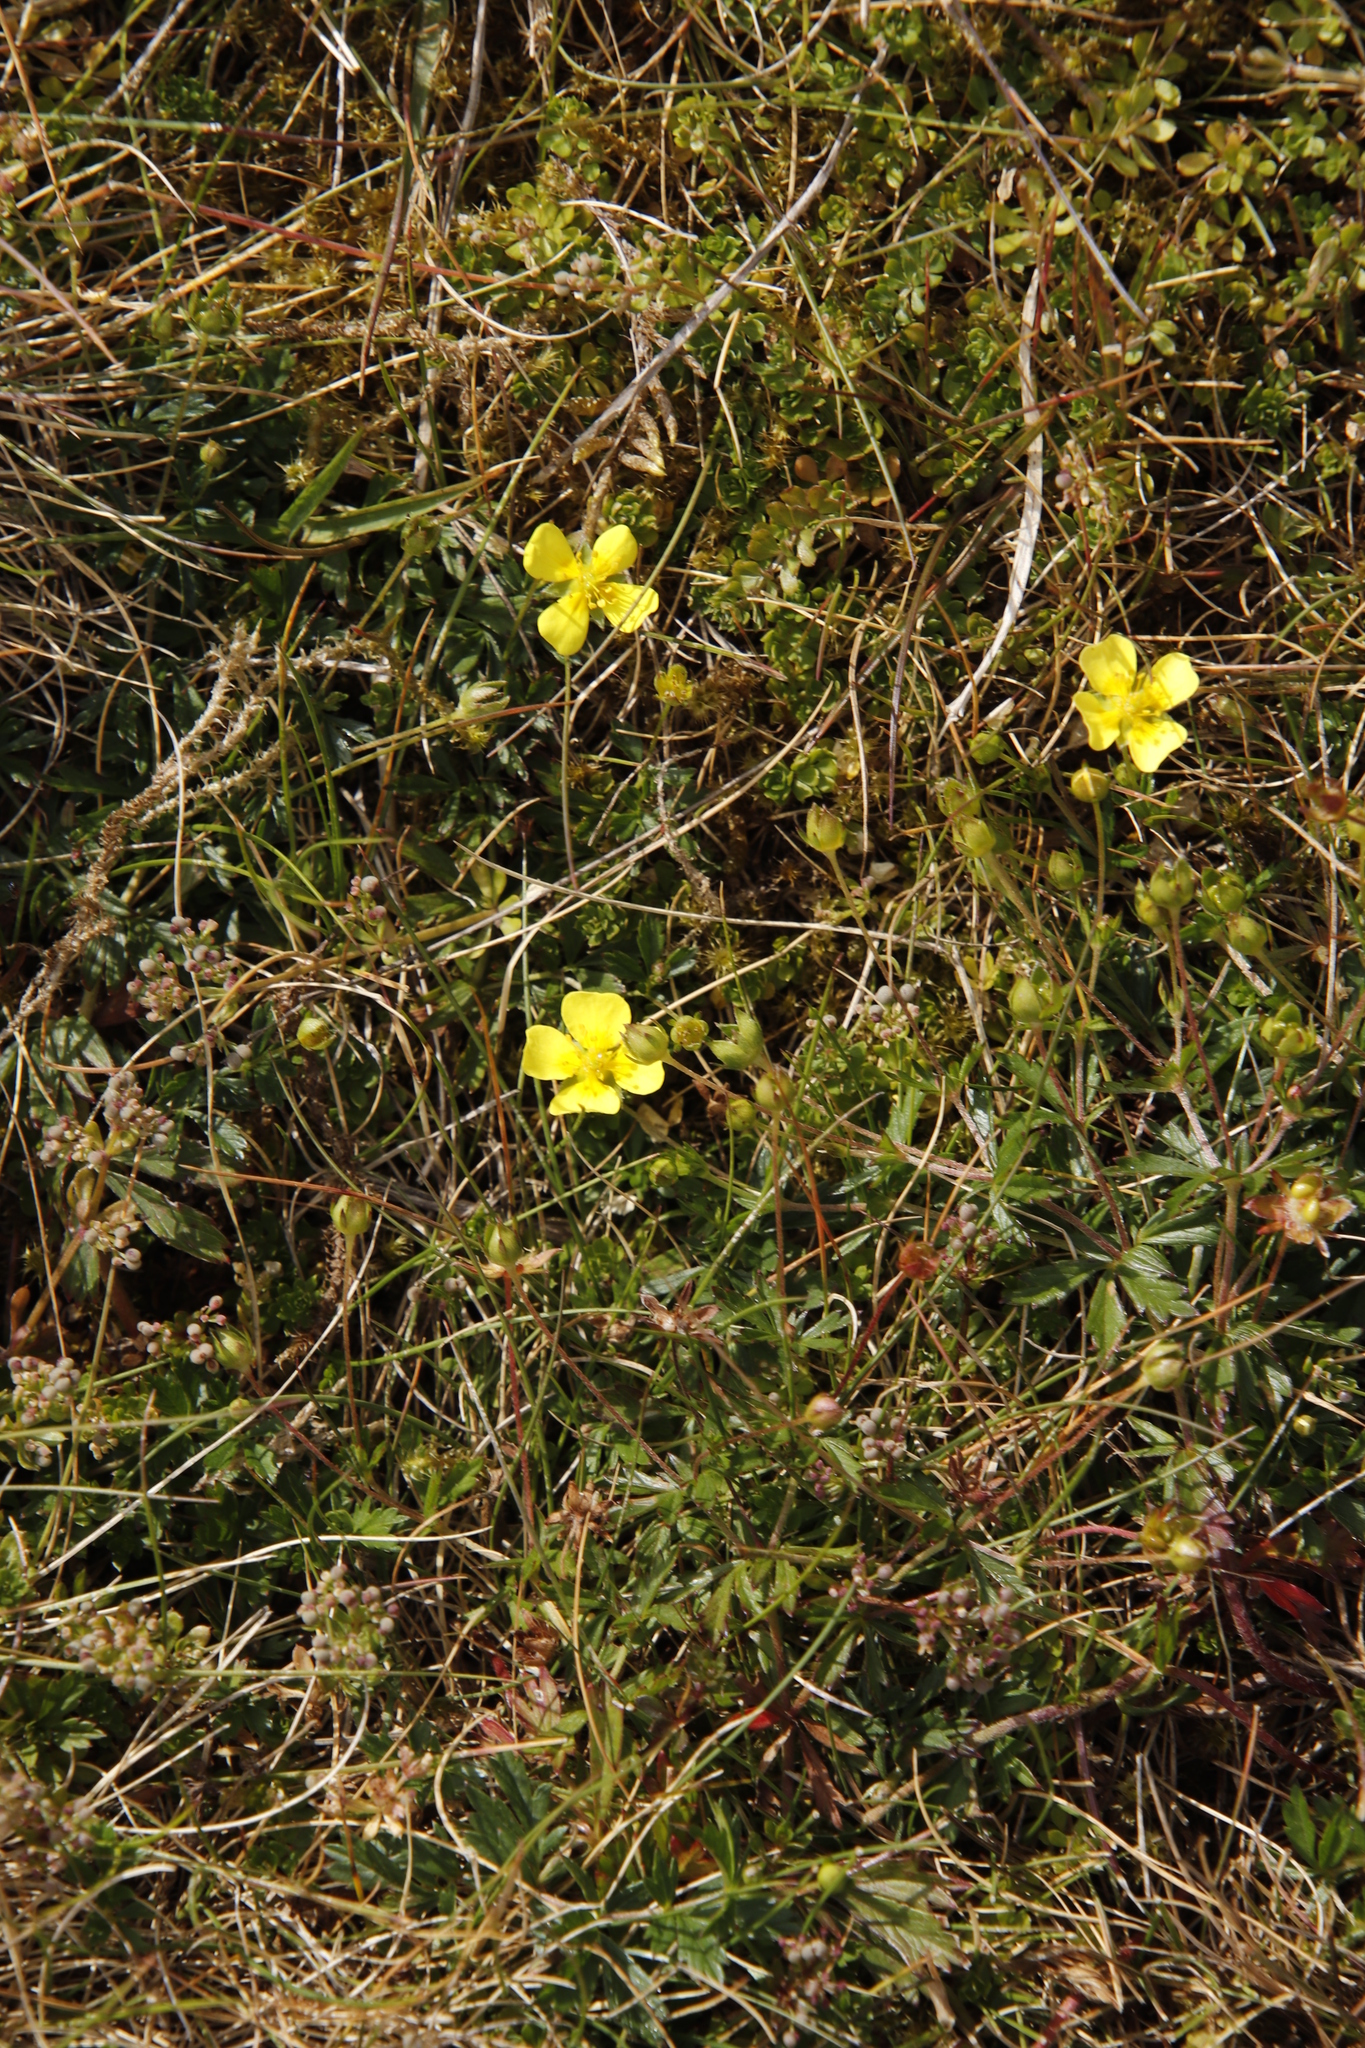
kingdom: Plantae
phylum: Tracheophyta
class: Magnoliopsida
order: Rosales
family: Rosaceae
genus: Potentilla
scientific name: Potentilla erecta
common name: Tormentil
